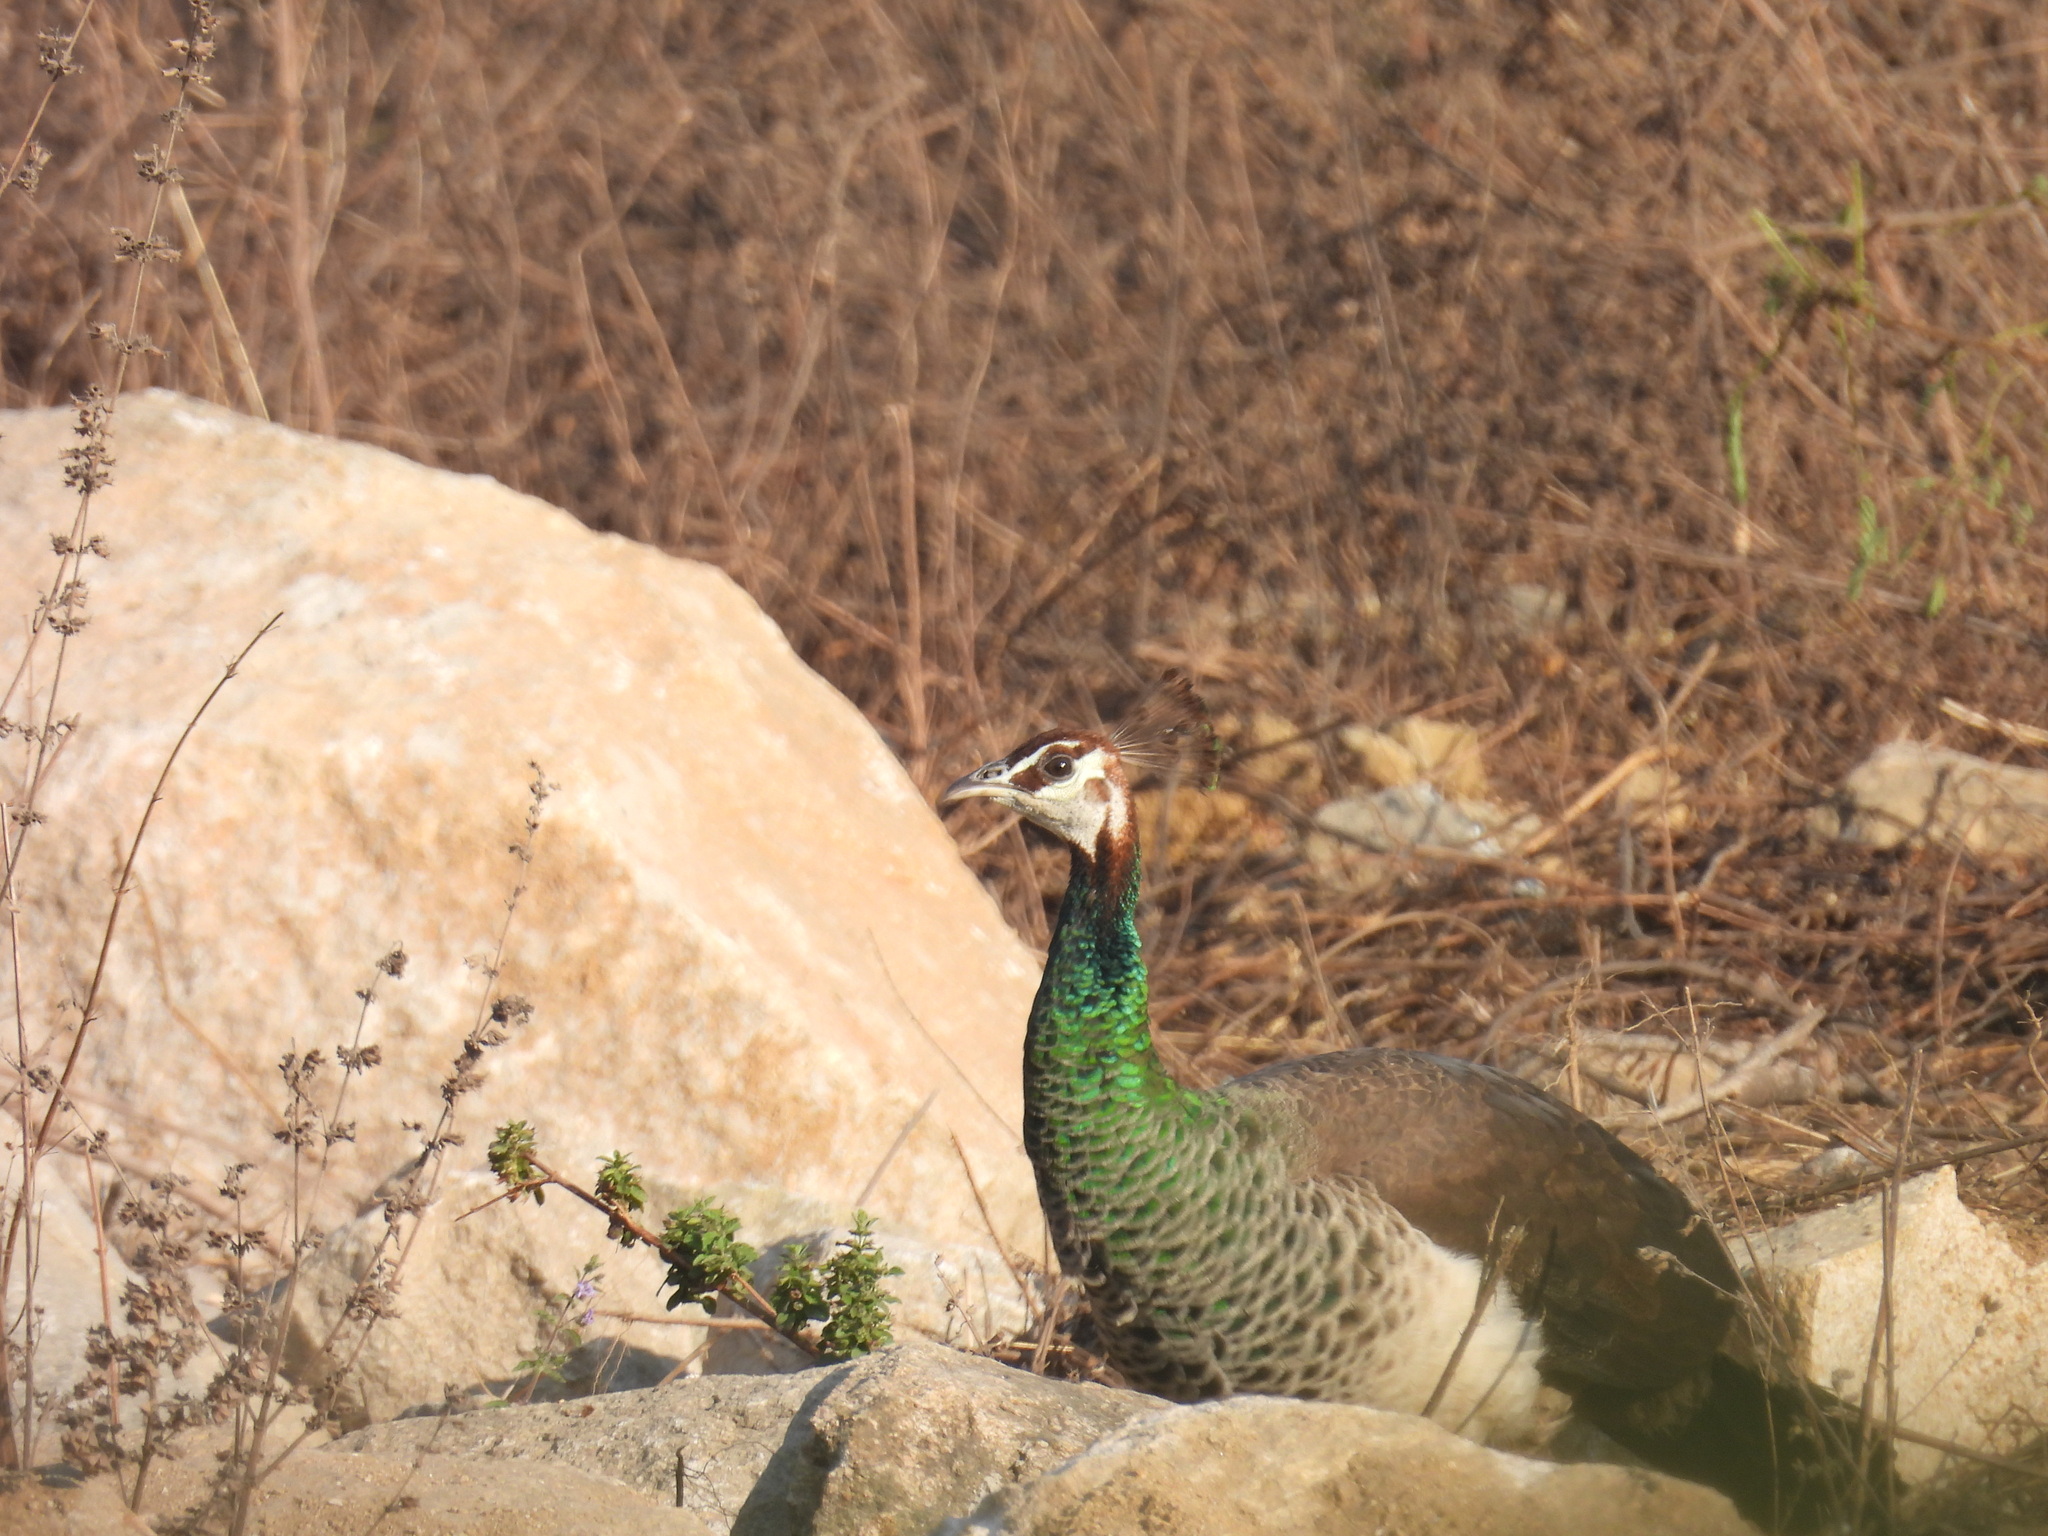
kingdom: Animalia
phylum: Chordata
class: Aves
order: Galliformes
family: Phasianidae
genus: Pavo
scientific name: Pavo cristatus
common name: Indian peafowl
